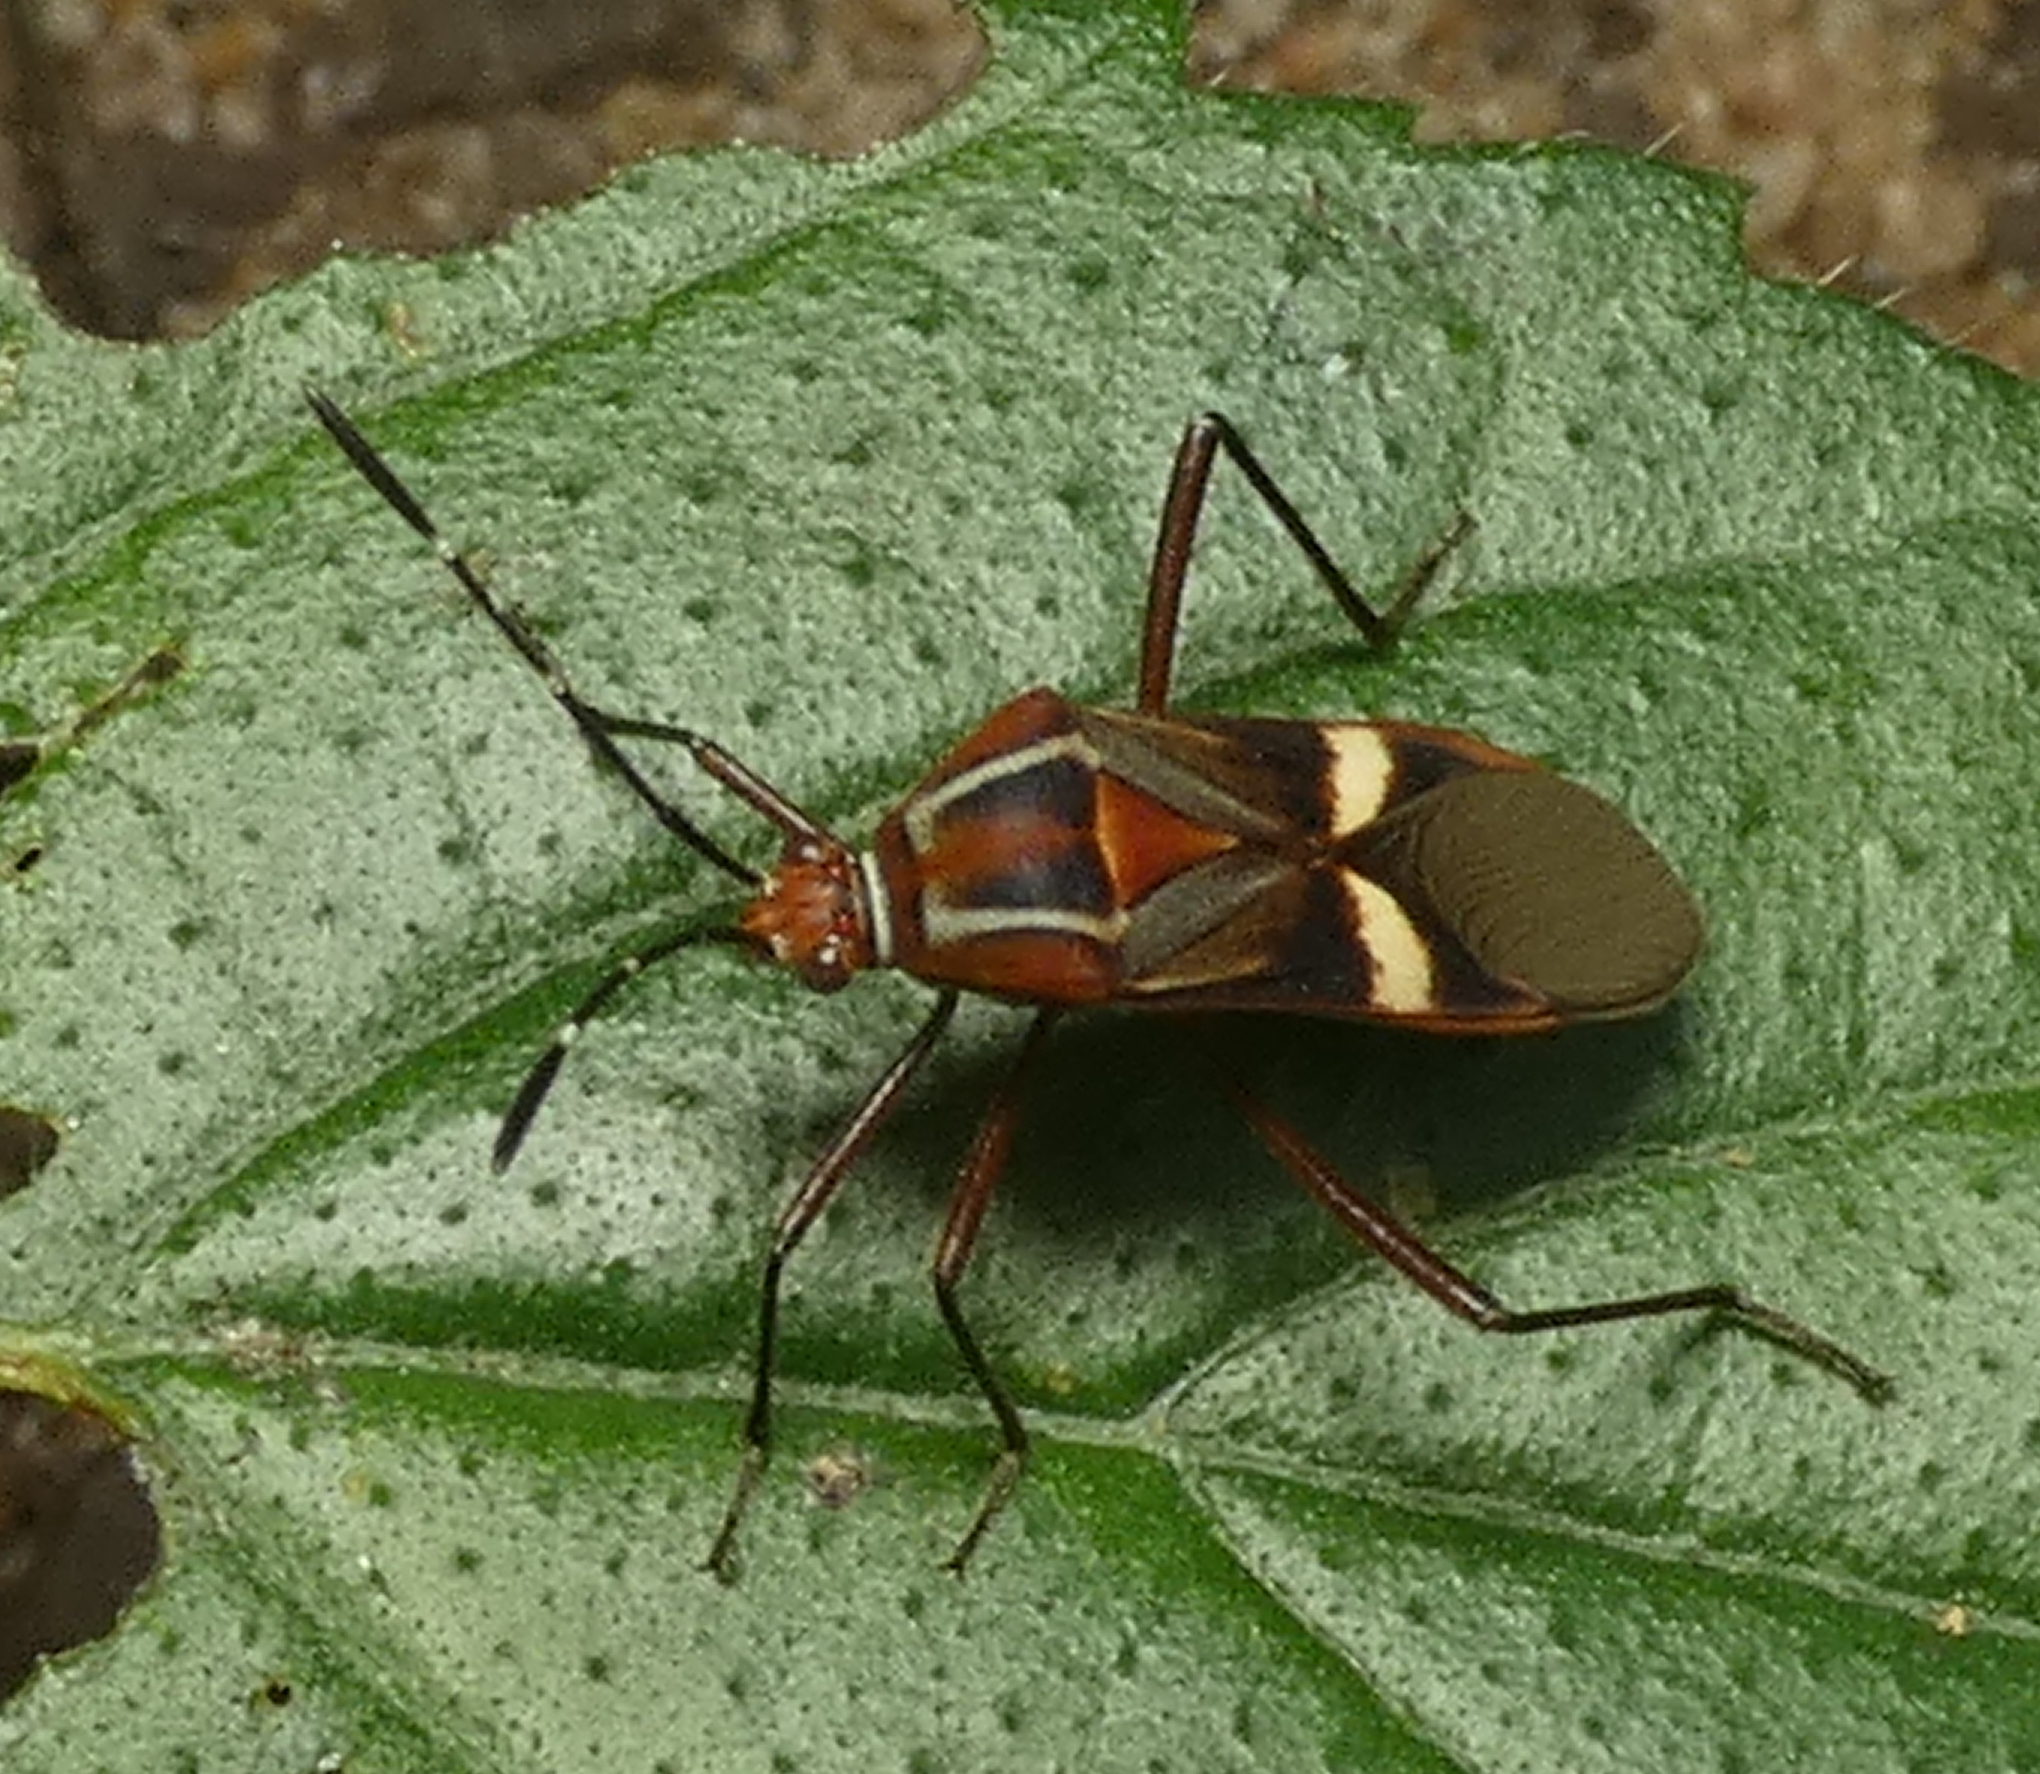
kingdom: Animalia
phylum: Arthropoda
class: Insecta
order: Hemiptera
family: Coreidae
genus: Hypselonotus
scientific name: Hypselonotus interruptus
